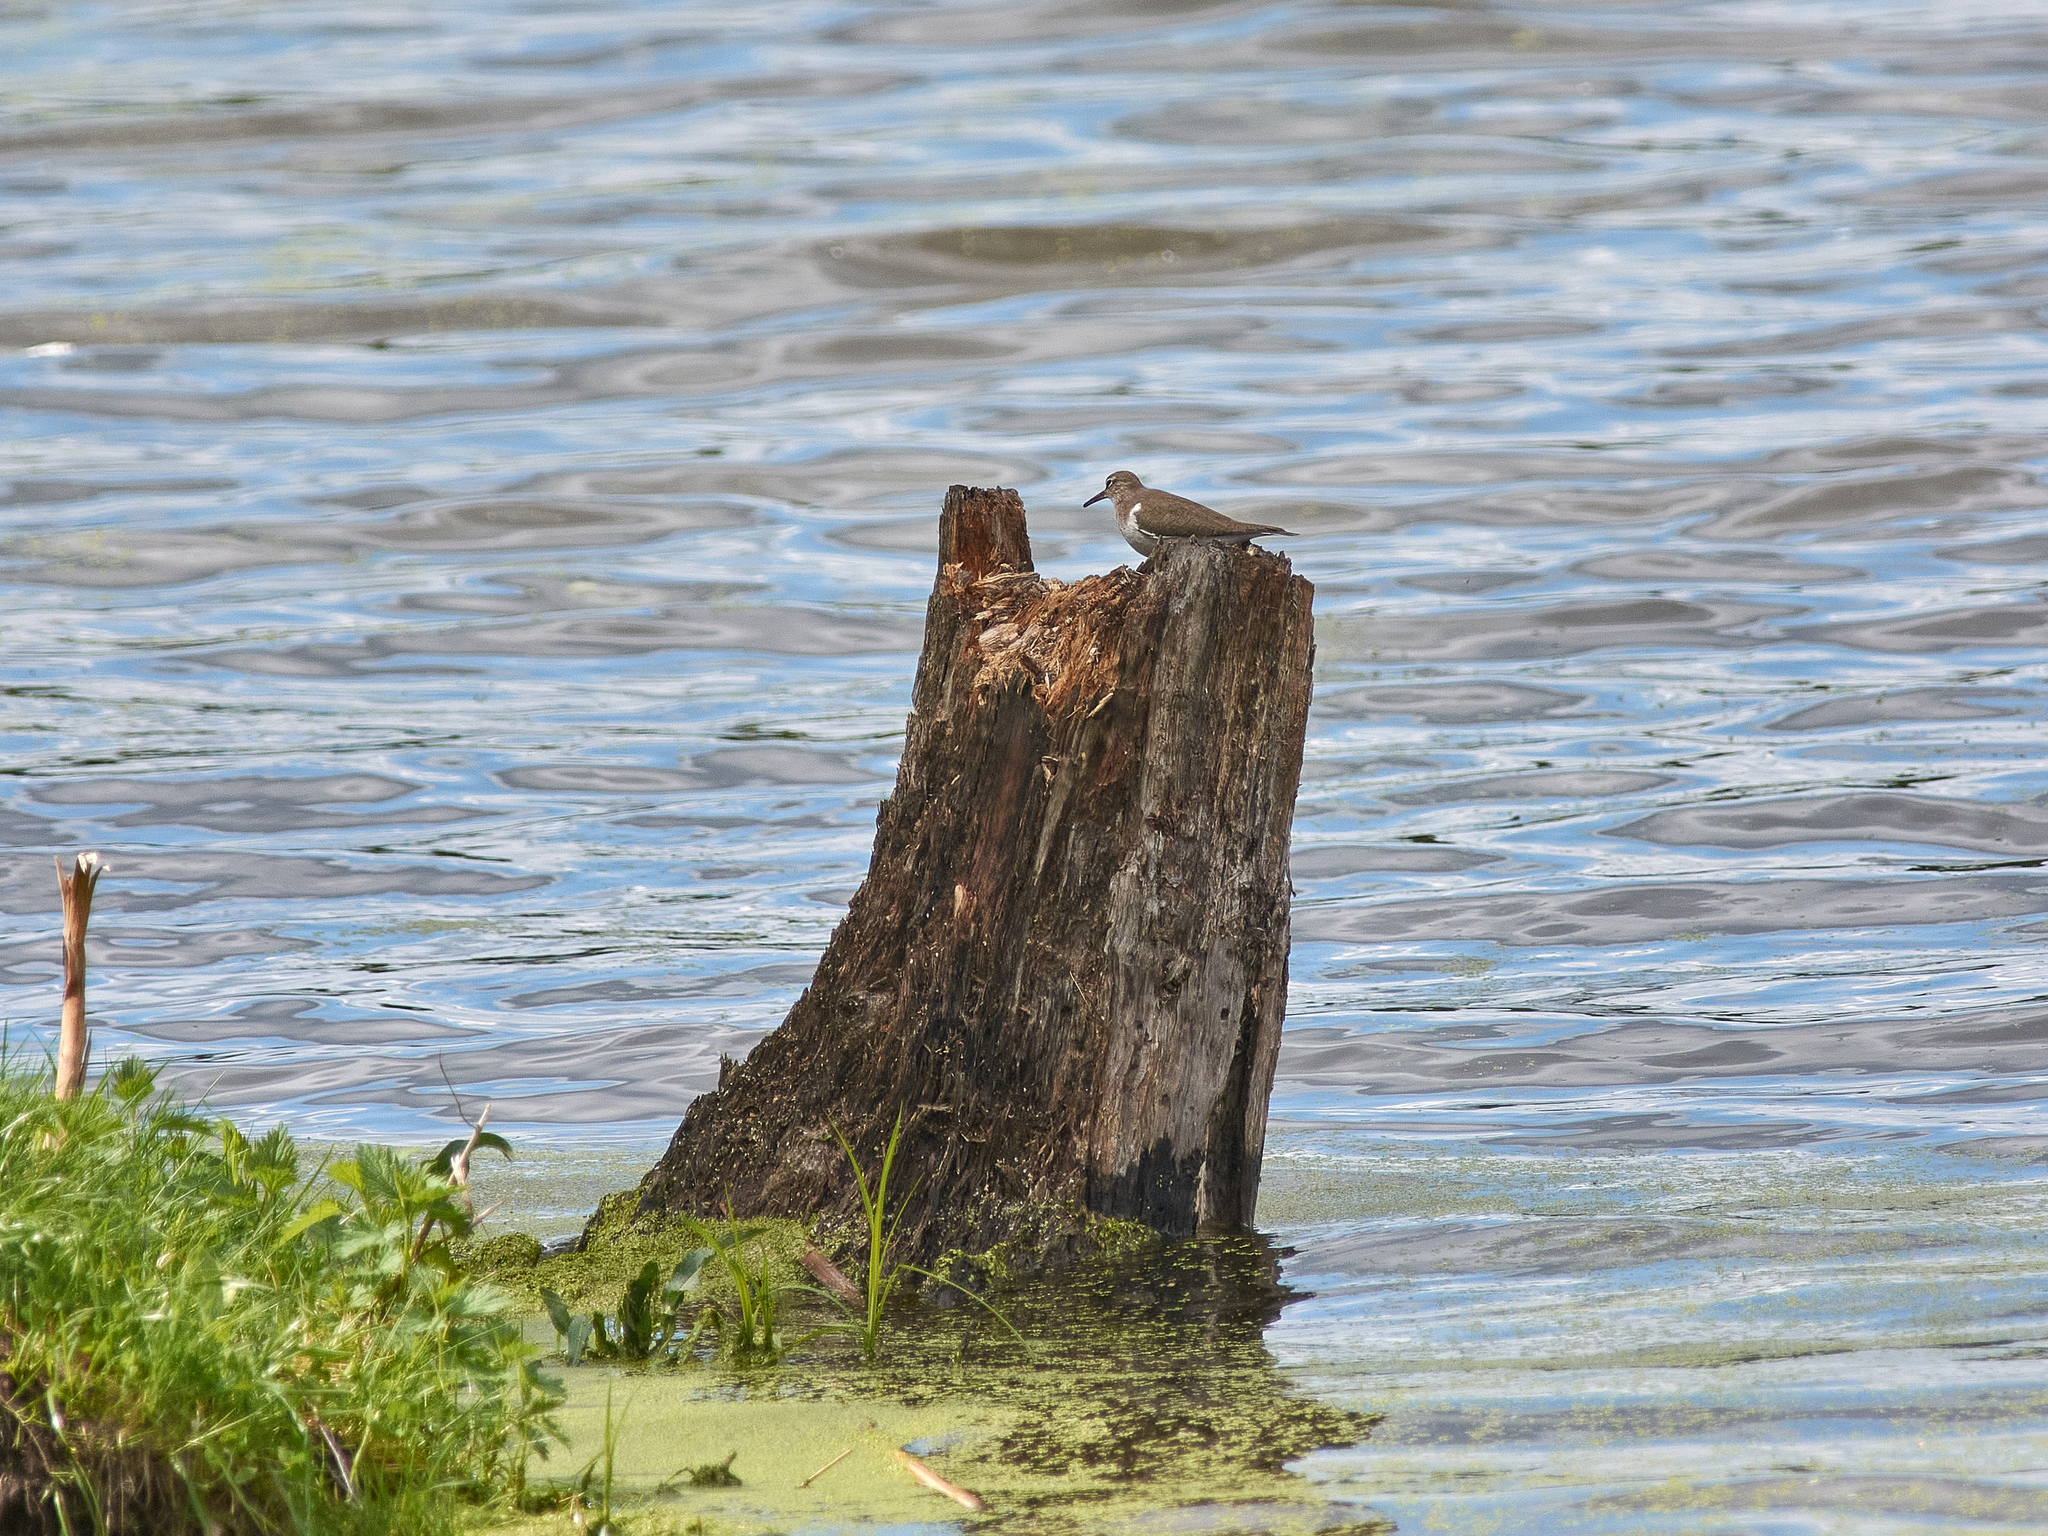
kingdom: Animalia
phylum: Chordata
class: Aves
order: Charadriiformes
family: Scolopacidae
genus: Actitis
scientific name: Actitis hypoleucos
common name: Common sandpiper
